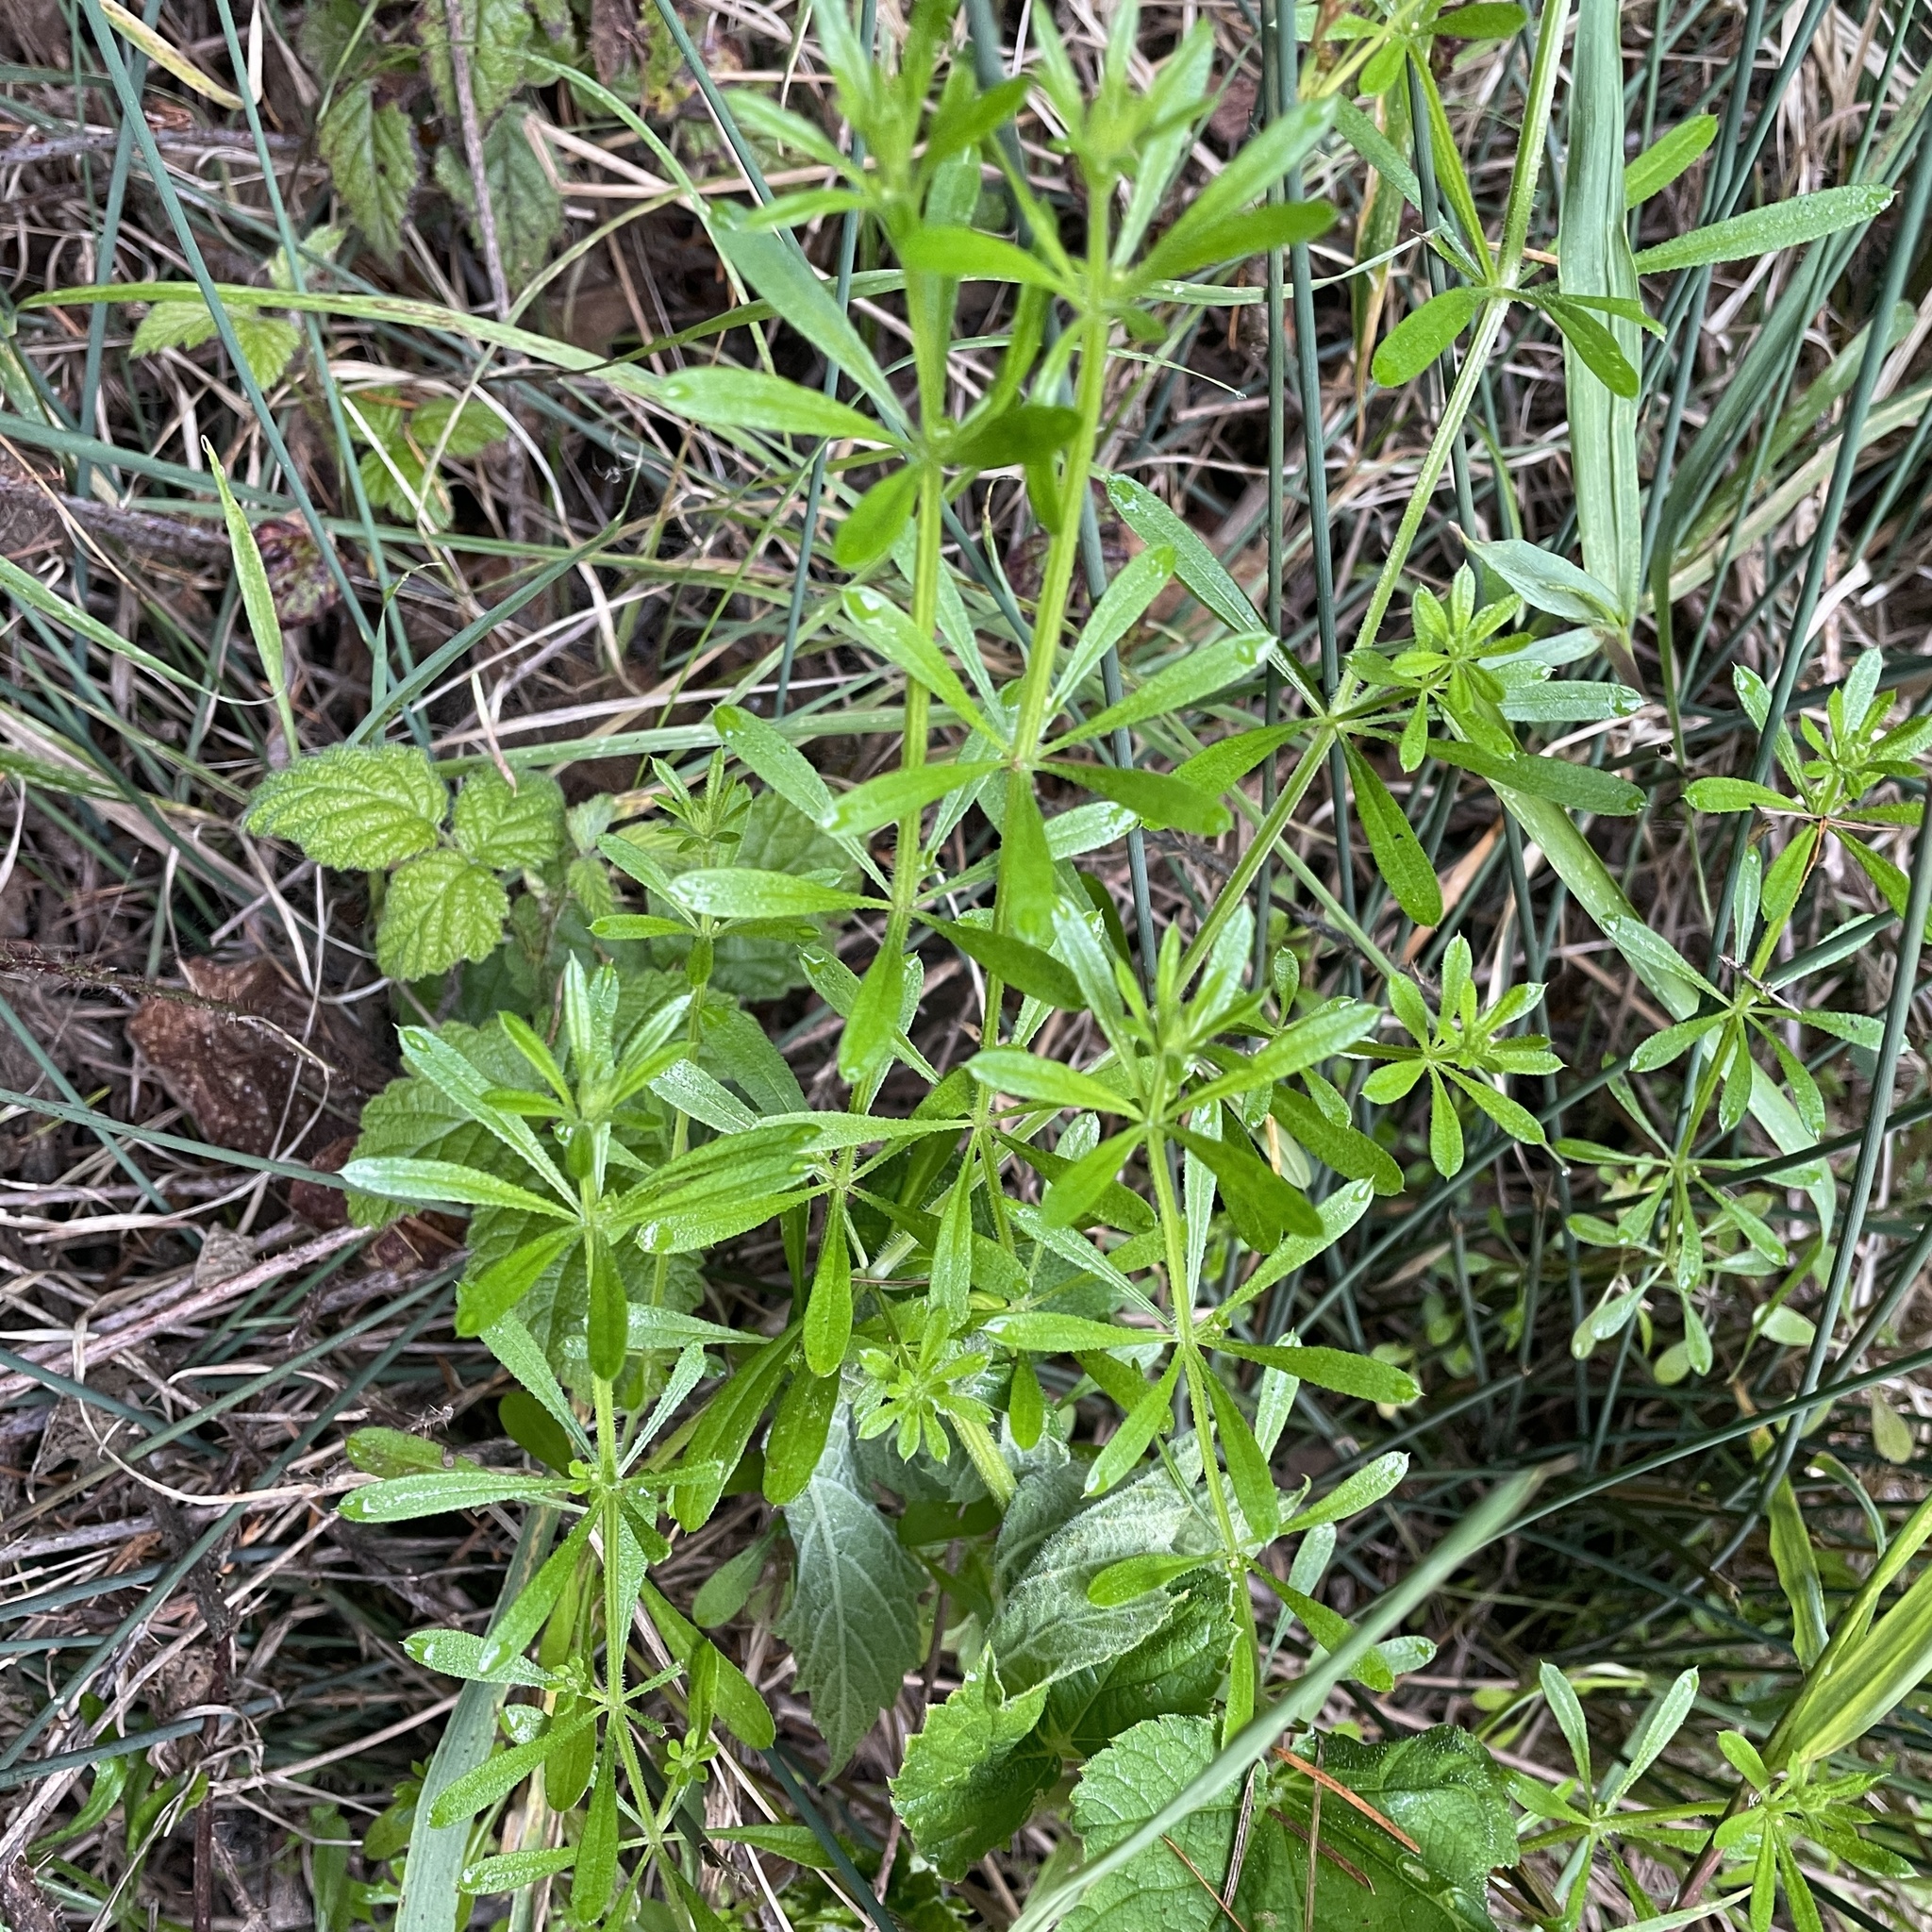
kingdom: Plantae
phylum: Tracheophyta
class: Magnoliopsida
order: Gentianales
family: Rubiaceae
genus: Galium
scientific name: Galium aparine
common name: Cleavers
